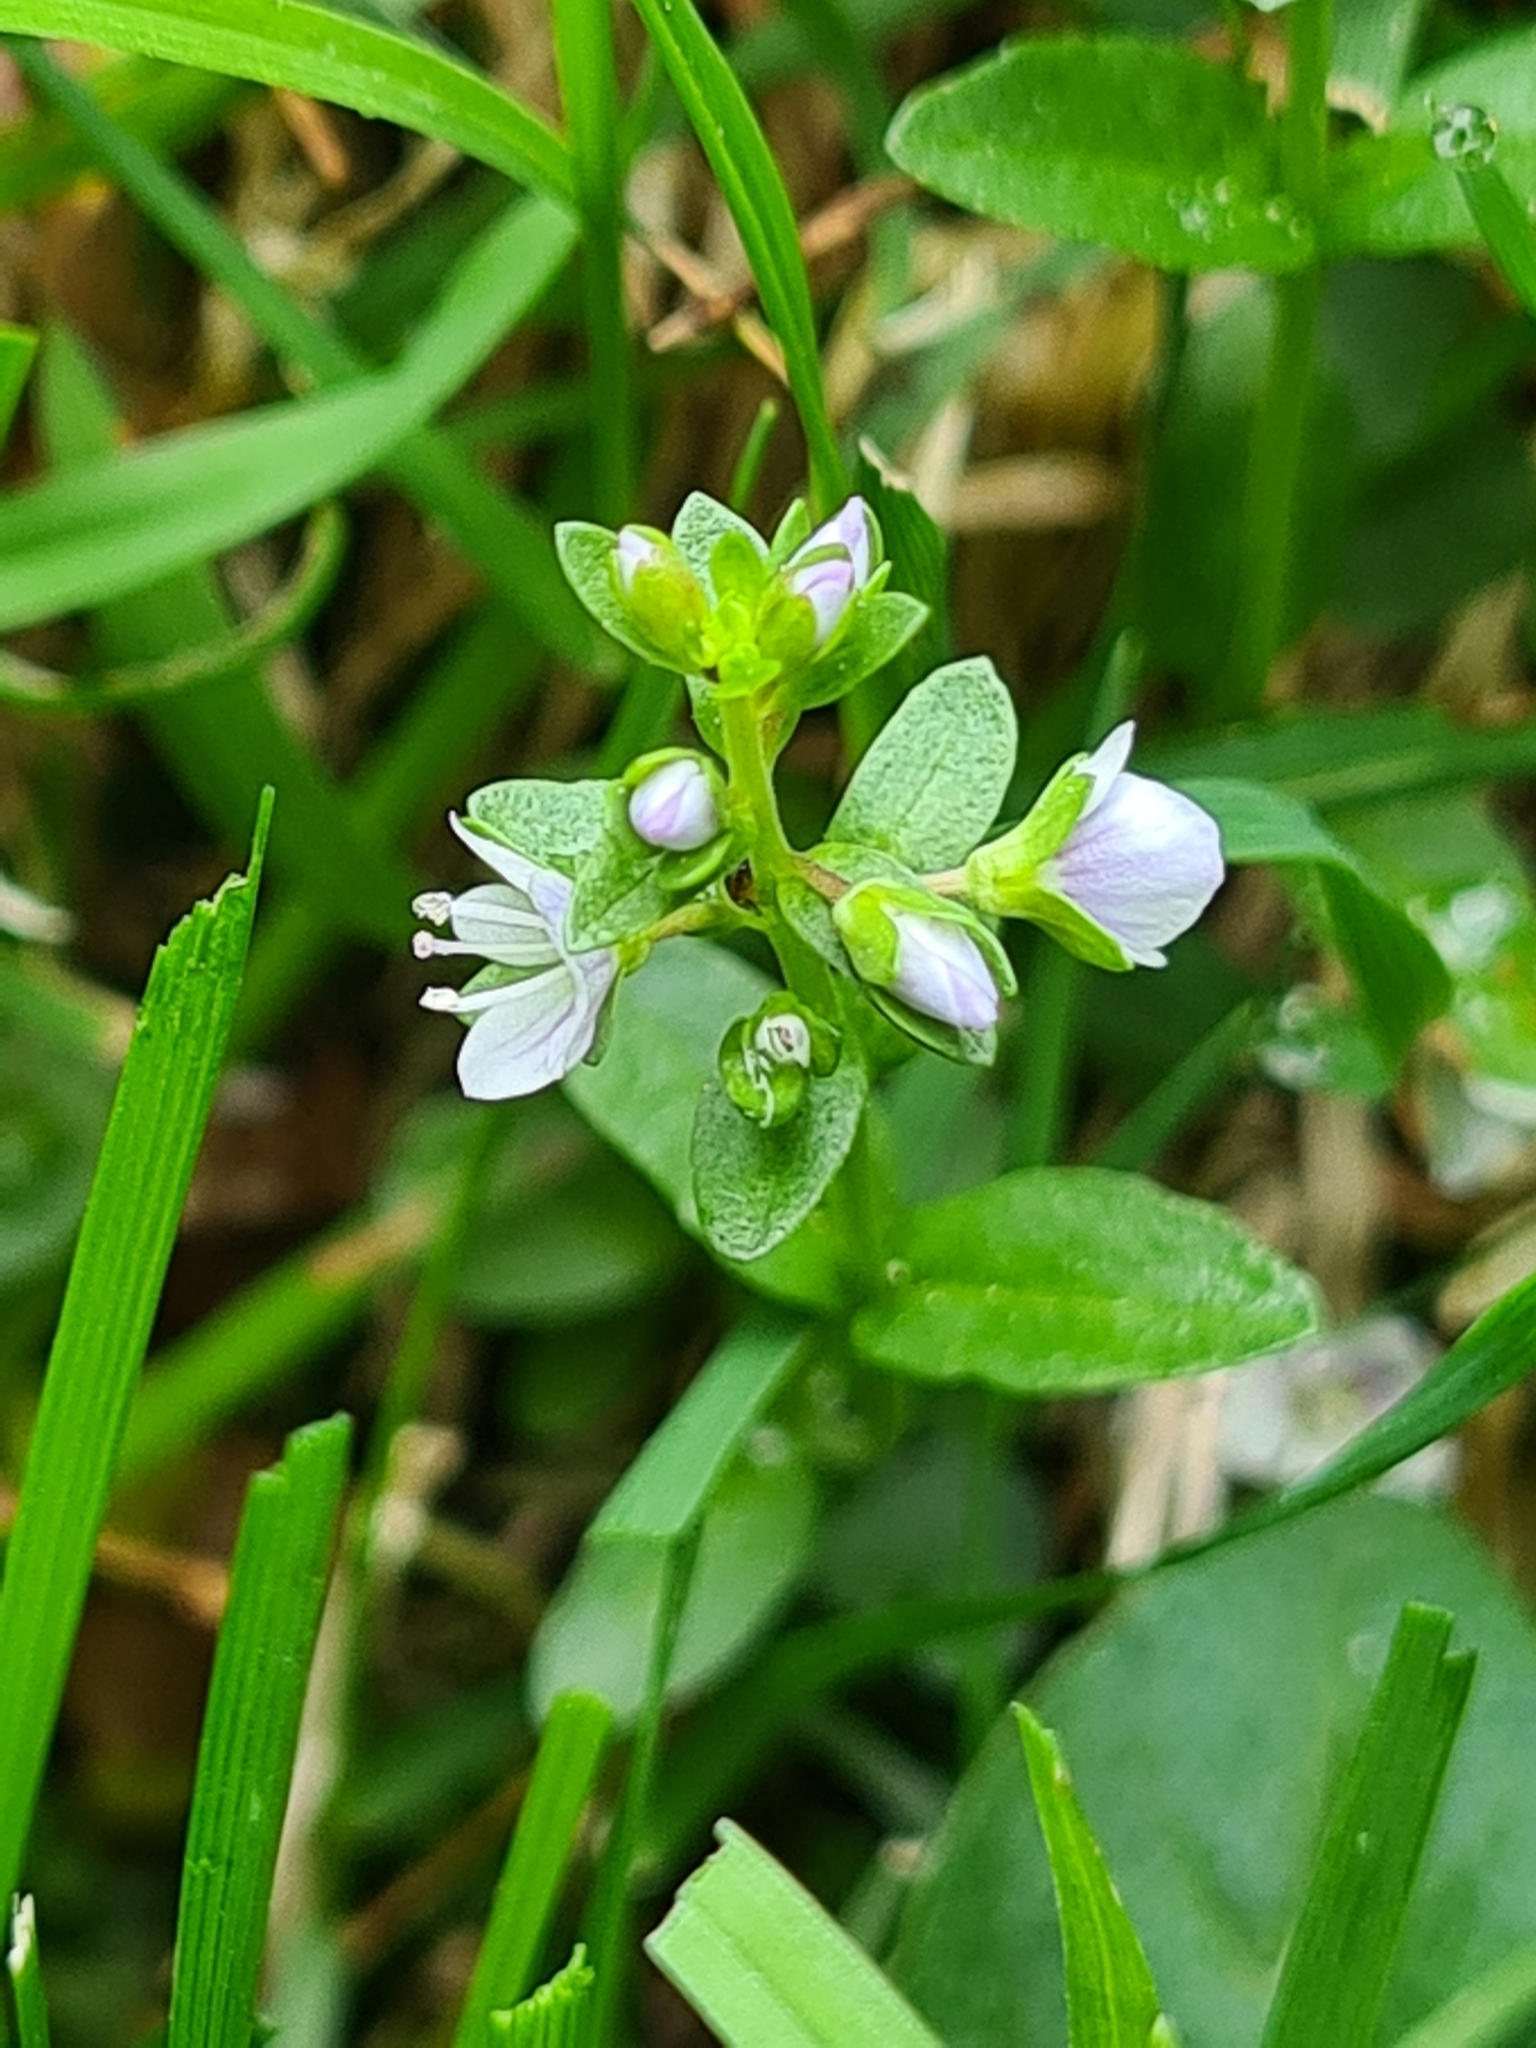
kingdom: Plantae
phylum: Tracheophyta
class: Magnoliopsida
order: Lamiales
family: Plantaginaceae
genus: Veronica
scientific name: Veronica serpyllifolia
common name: Thyme-leaved speedwell
